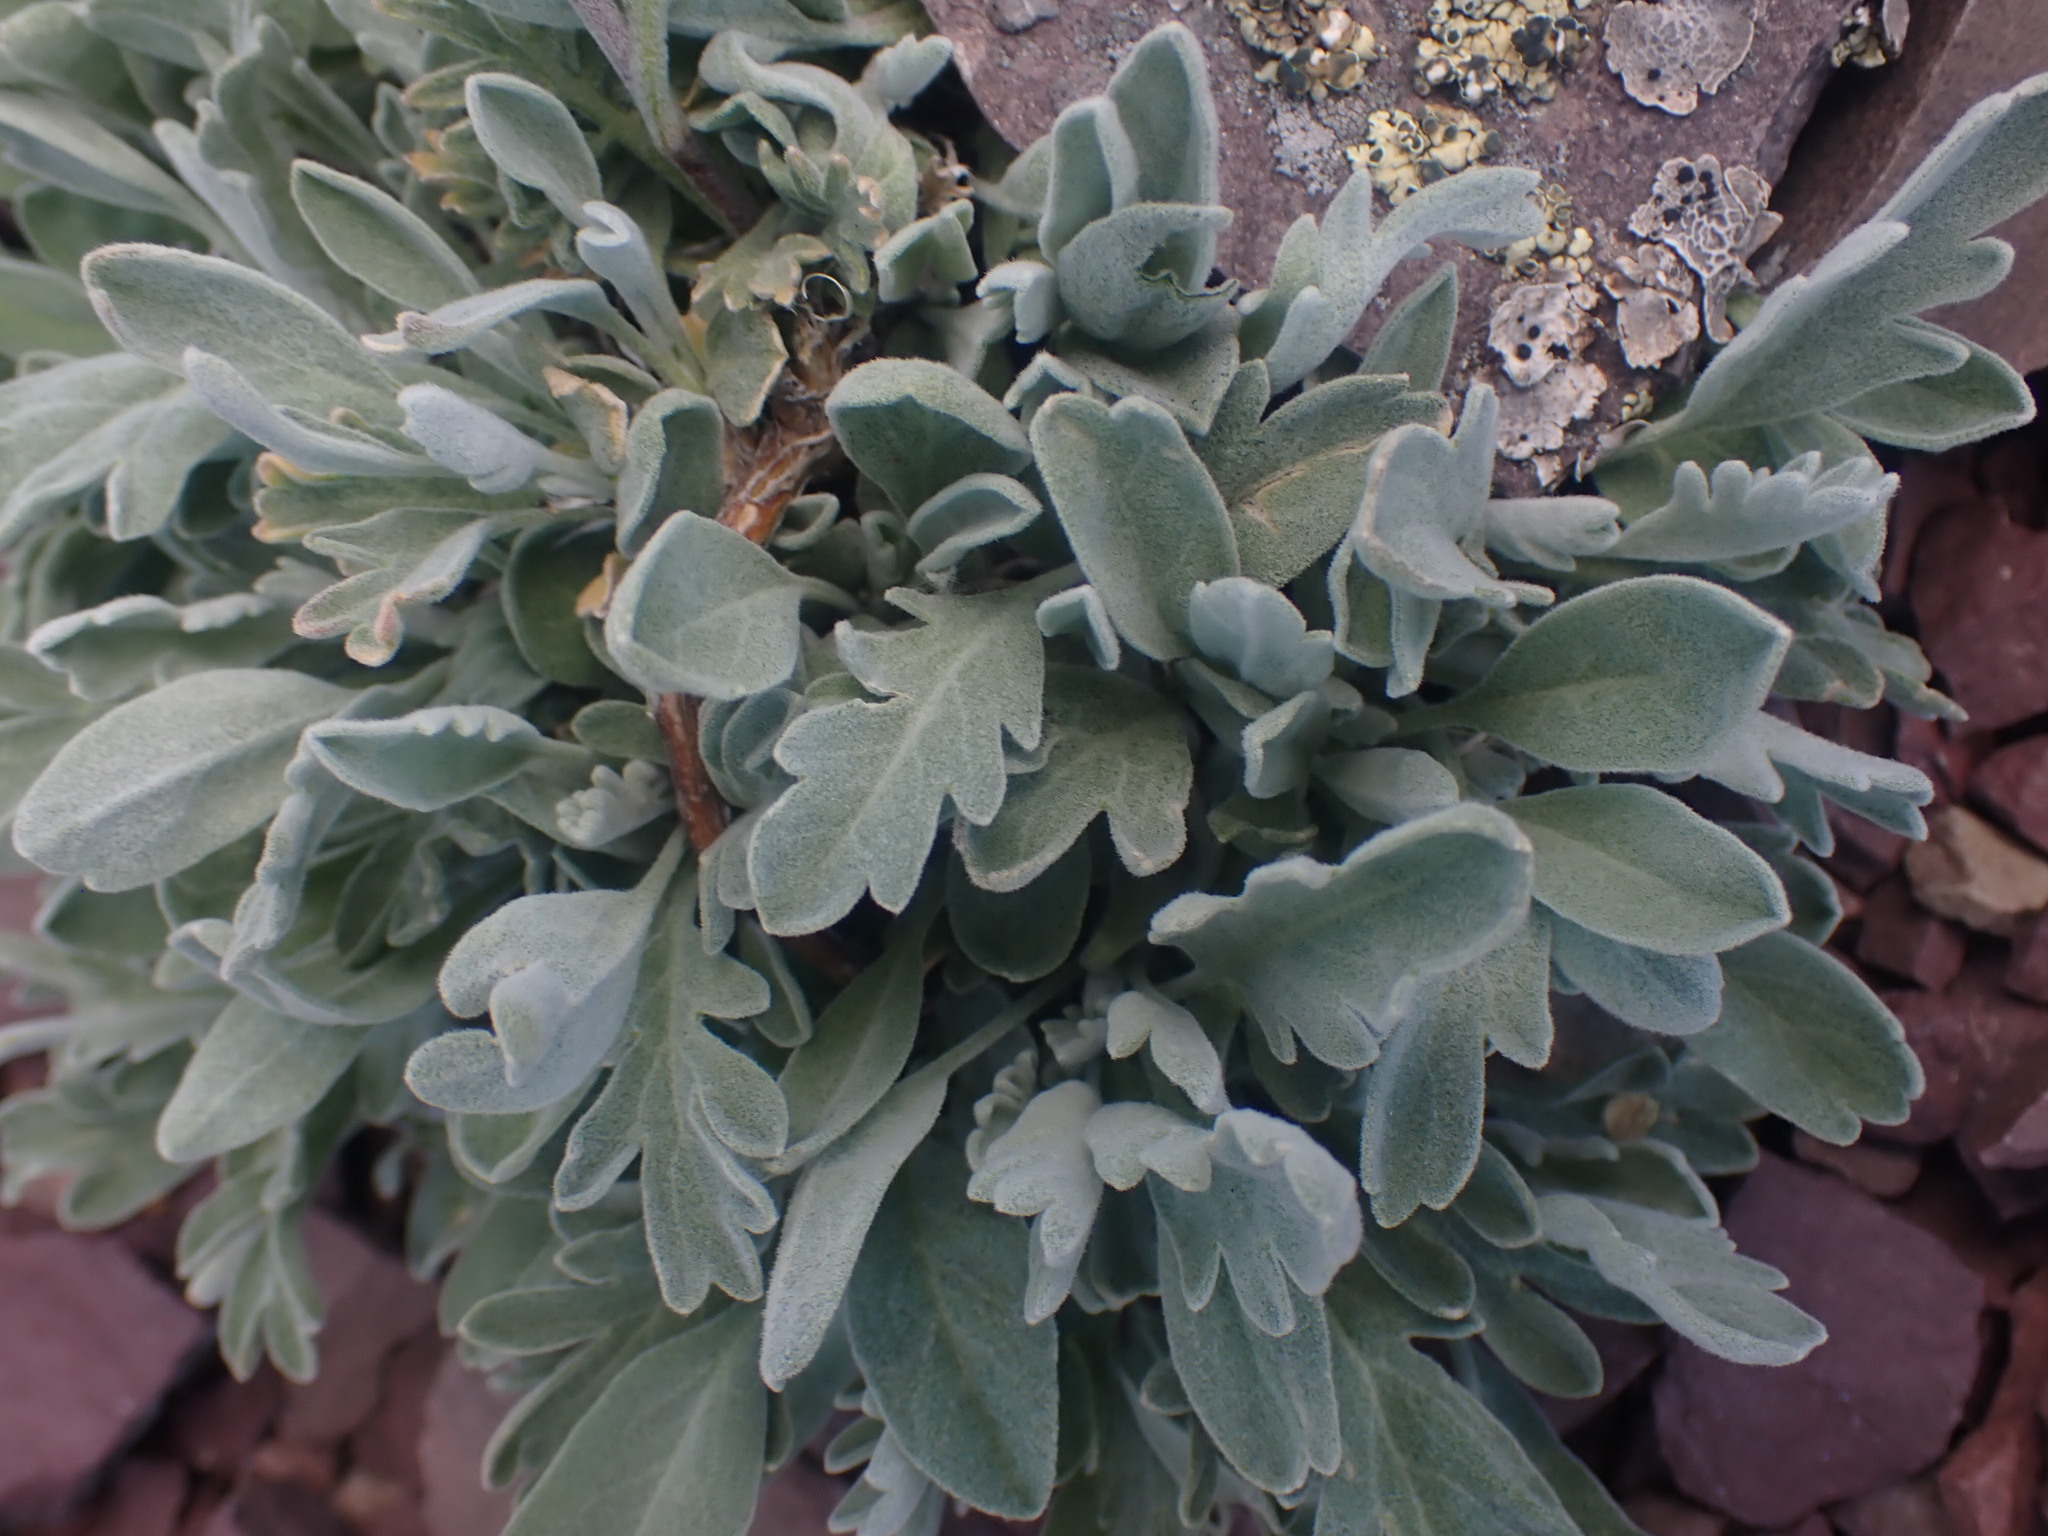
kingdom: Plantae
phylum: Tracheophyta
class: Magnoliopsida
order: Brassicales
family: Brassicaceae
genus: Smelowskia
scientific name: Smelowskia americana
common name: American false candytuft
